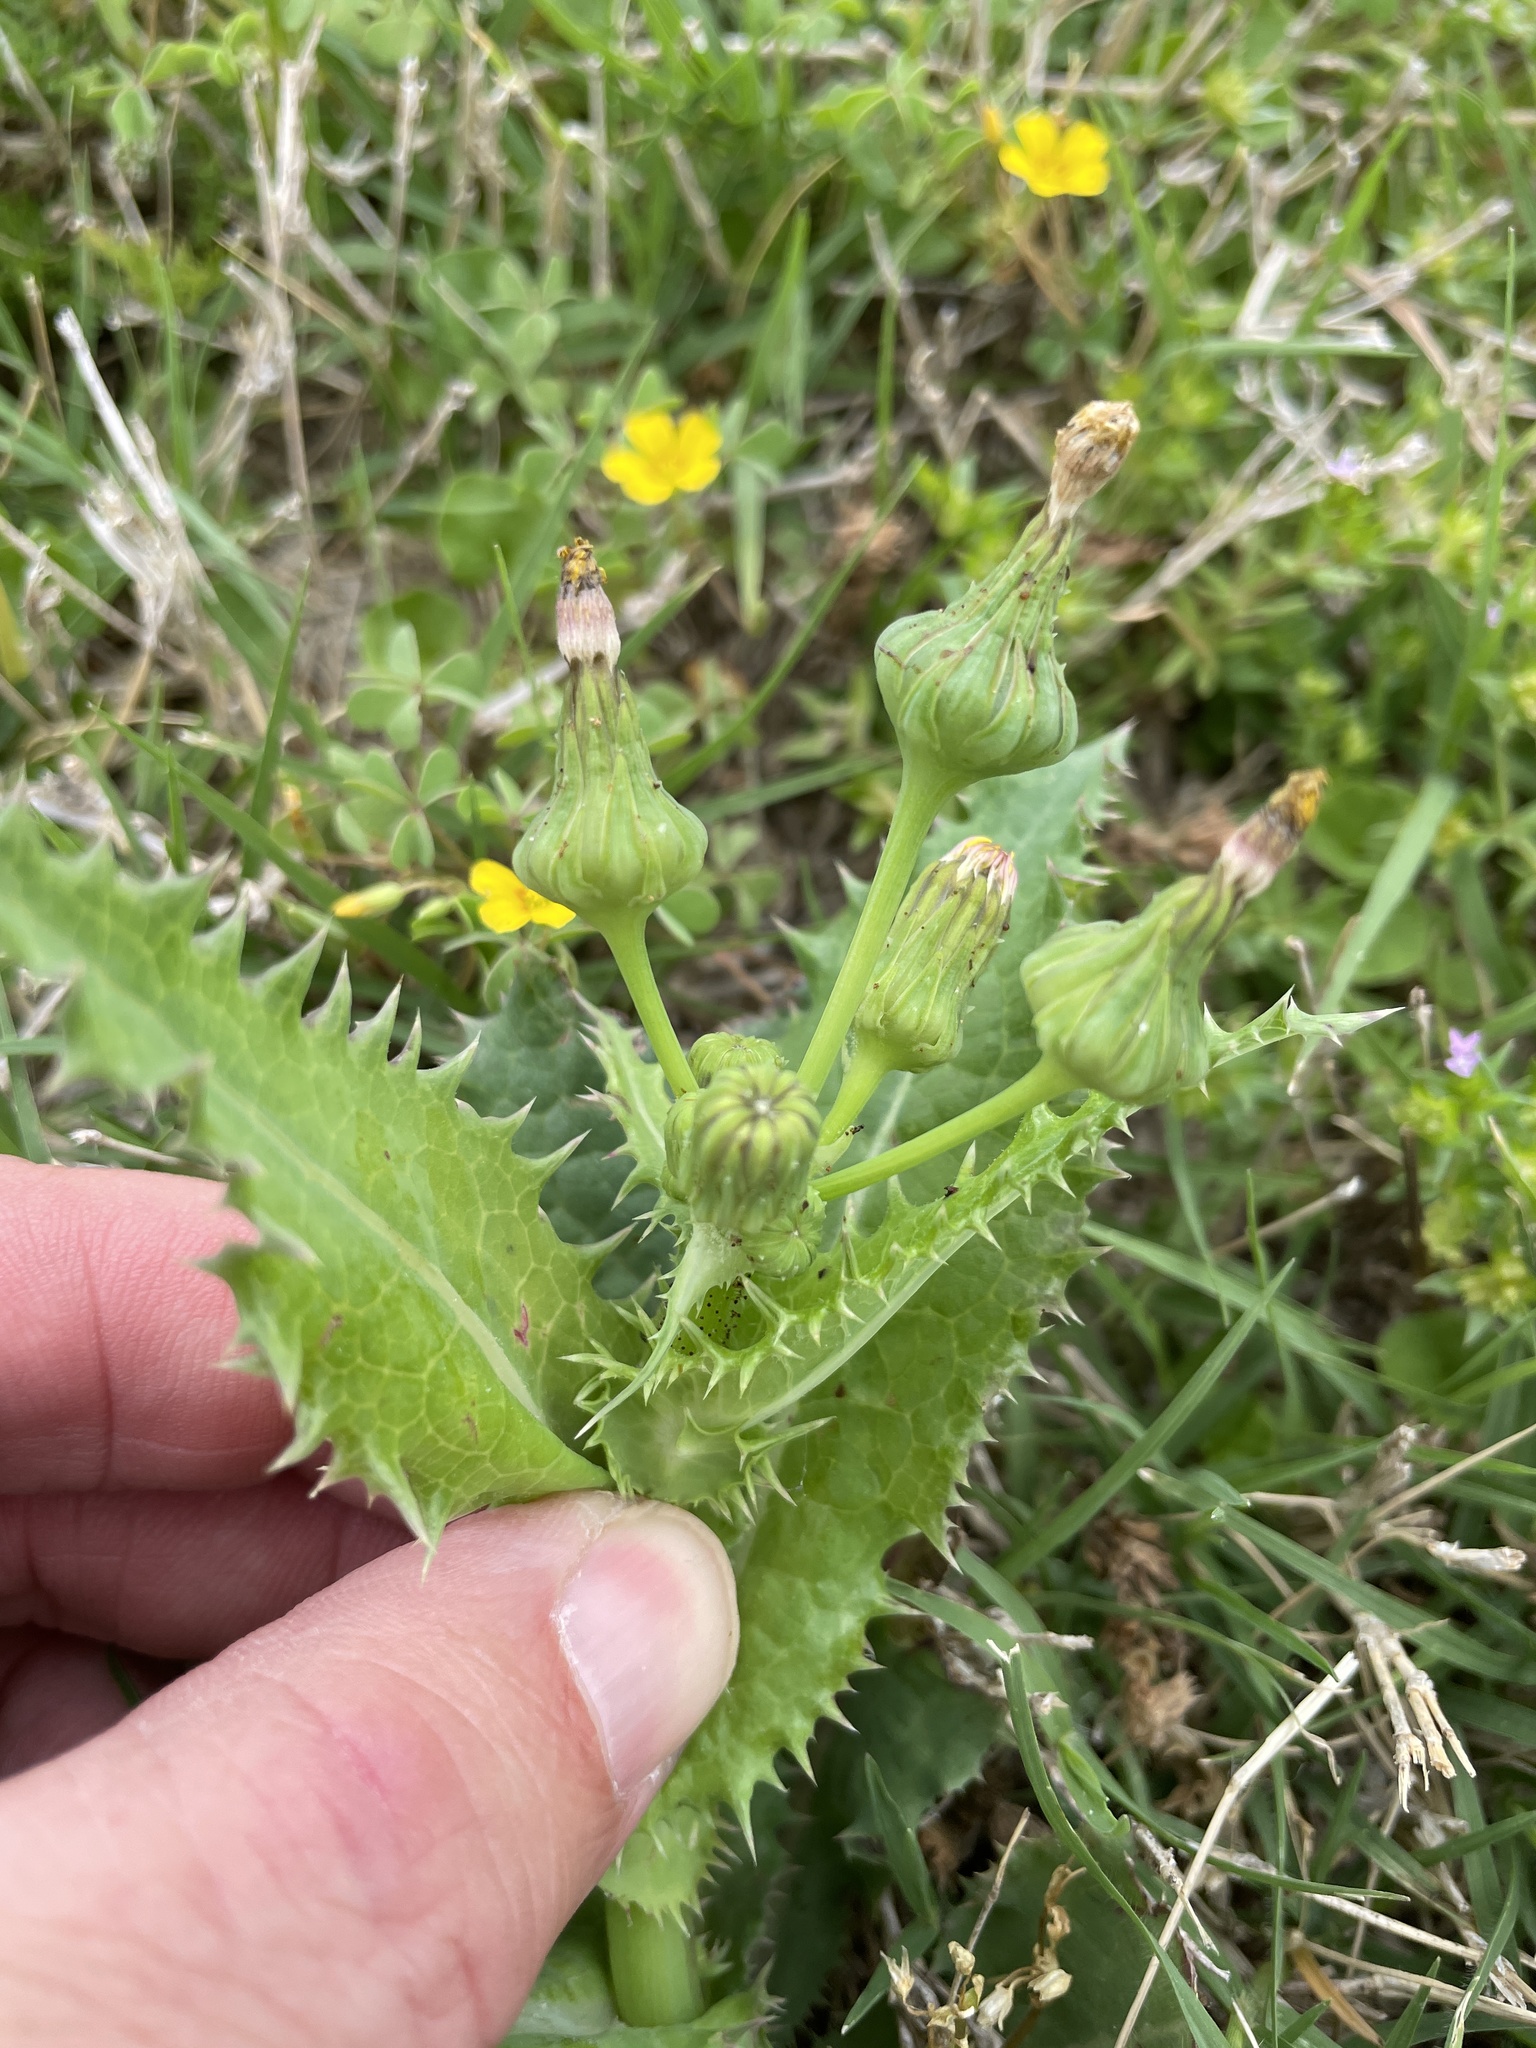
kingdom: Plantae
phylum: Tracheophyta
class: Magnoliopsida
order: Asterales
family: Asteraceae
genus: Sonchus
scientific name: Sonchus asper
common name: Prickly sow-thistle
